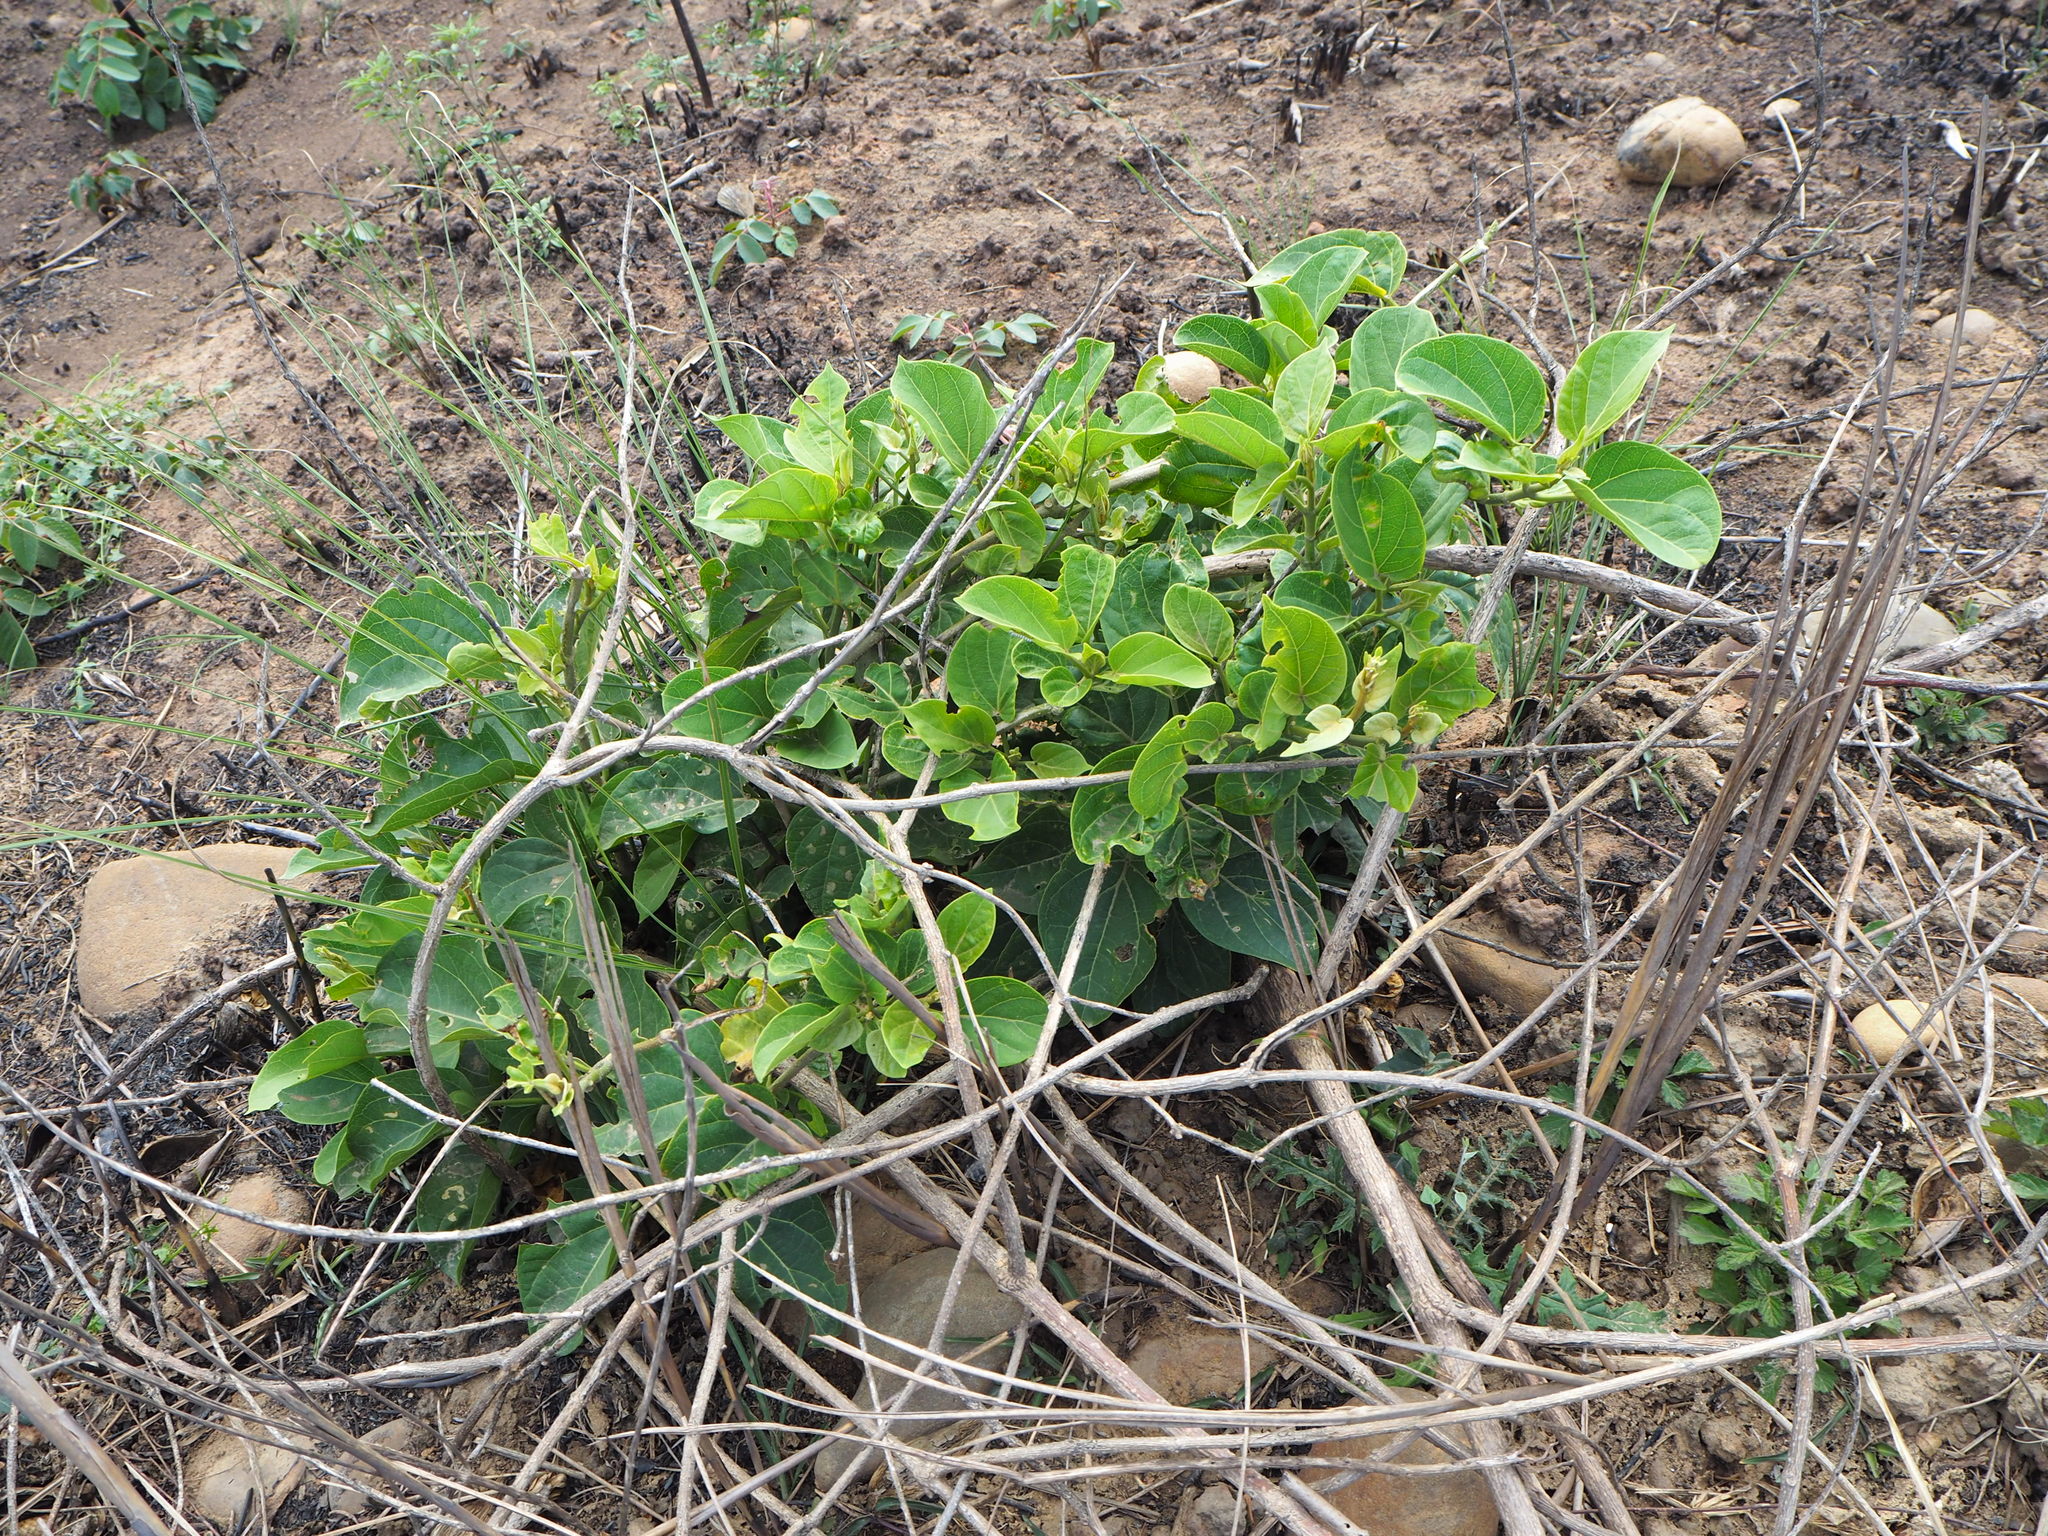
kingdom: Plantae
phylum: Tracheophyta
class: Magnoliopsida
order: Gentianales
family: Apocynaceae
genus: Stephanotis
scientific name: Stephanotis volubilis
